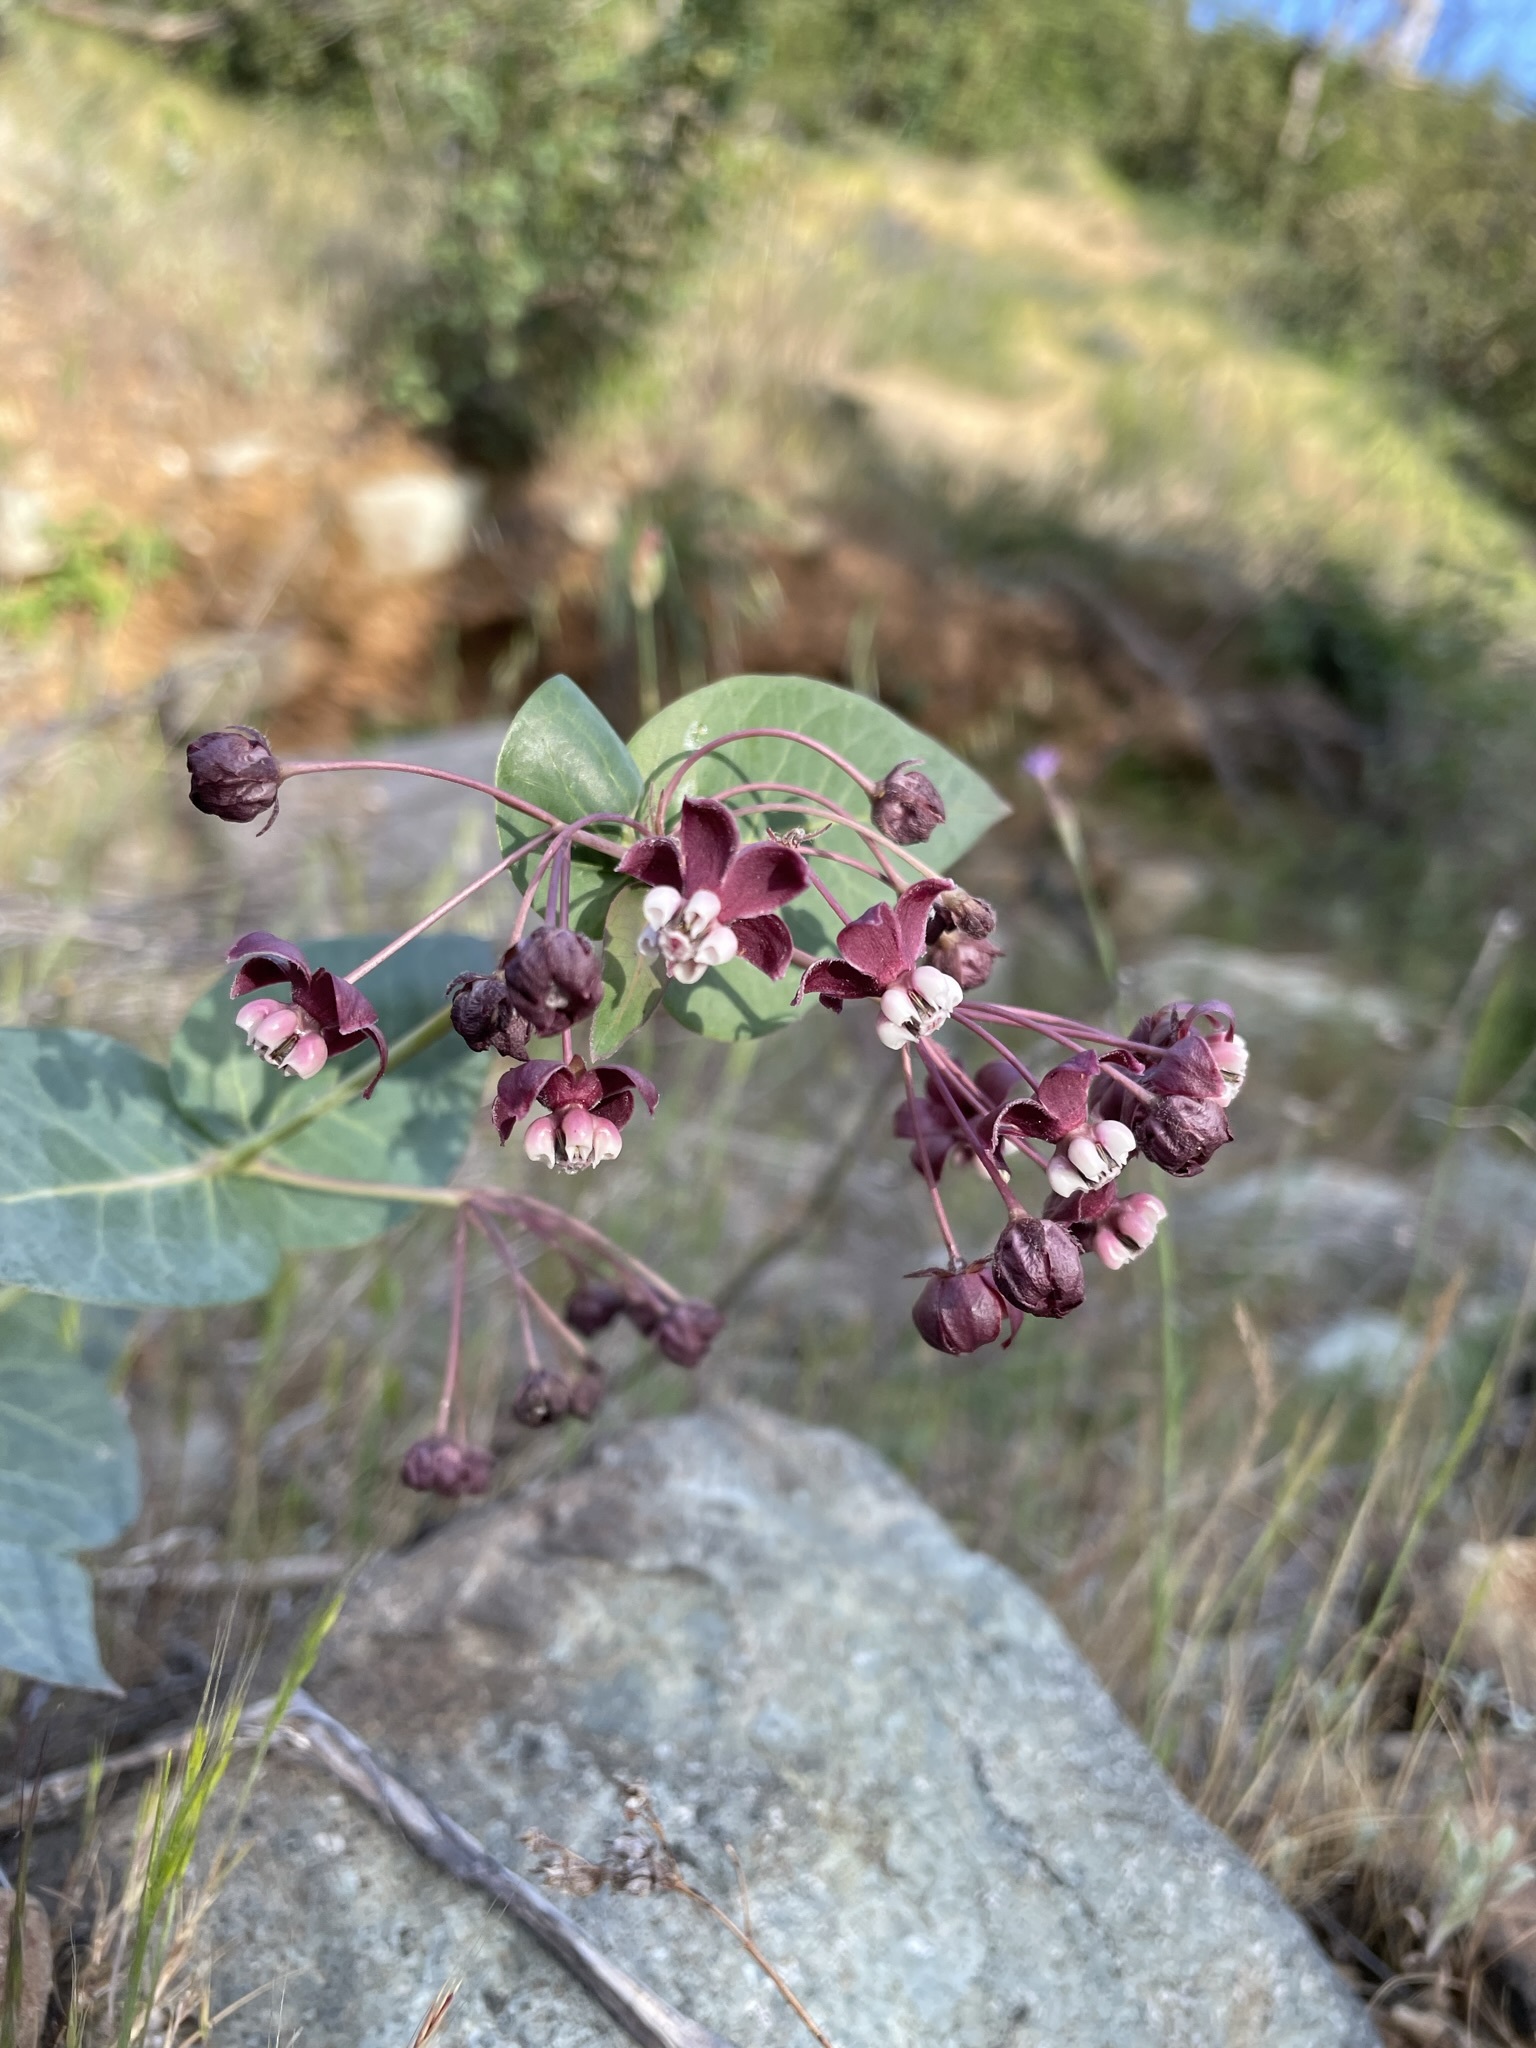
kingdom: Plantae
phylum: Tracheophyta
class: Magnoliopsida
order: Gentianales
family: Apocynaceae
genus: Asclepias
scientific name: Asclepias cordifolia
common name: Purple milkweed
